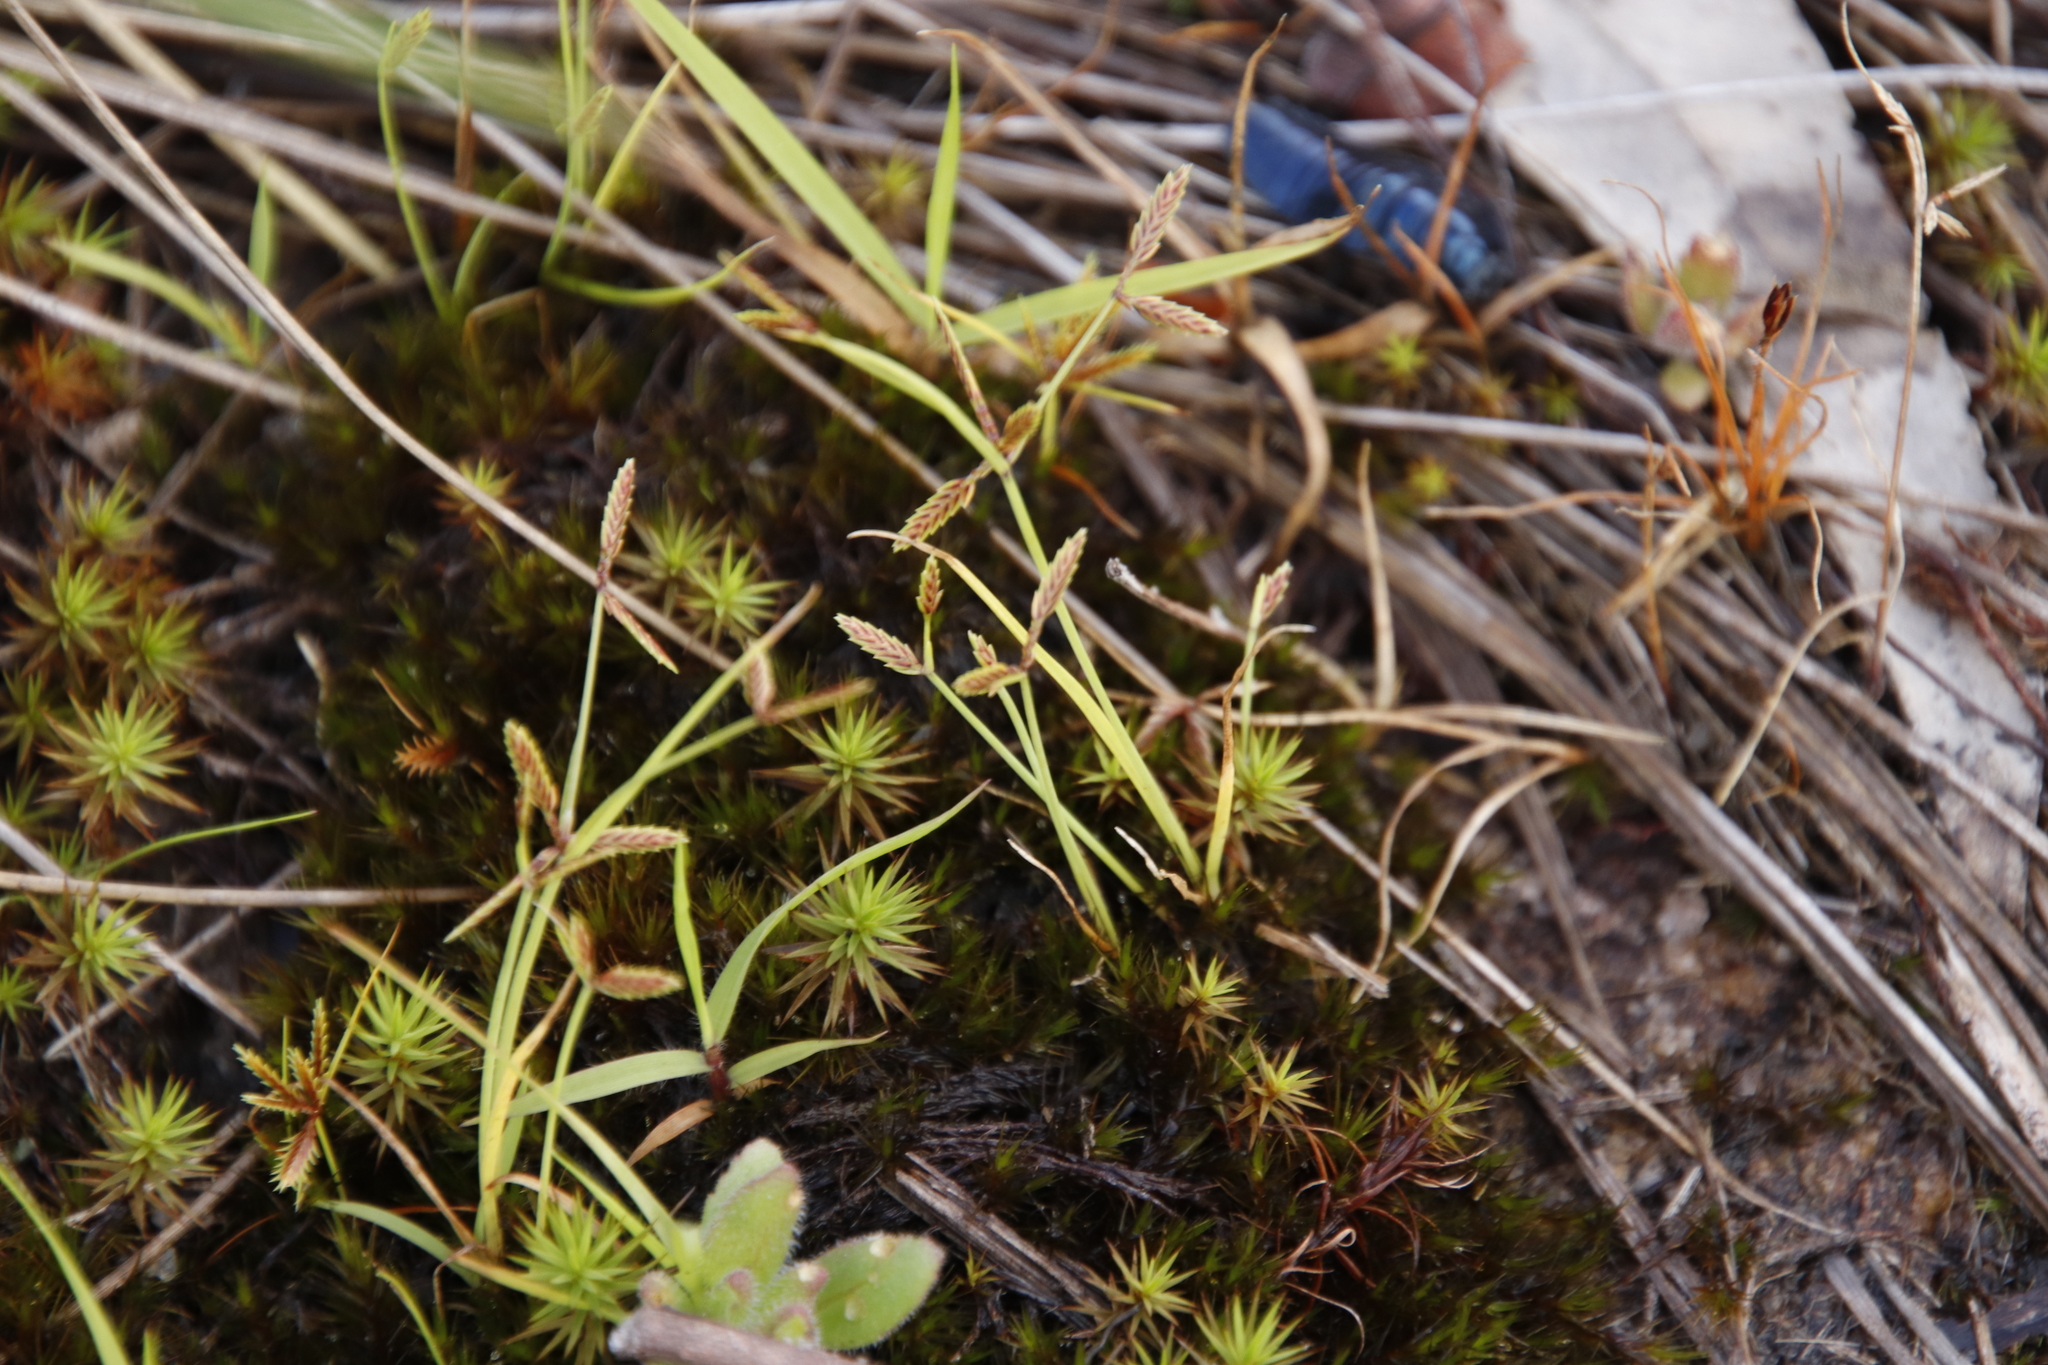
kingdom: Plantae
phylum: Bryophyta
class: Polytrichopsida
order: Polytrichales
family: Polytrichaceae
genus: Polytrichum
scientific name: Polytrichum subpilosum
